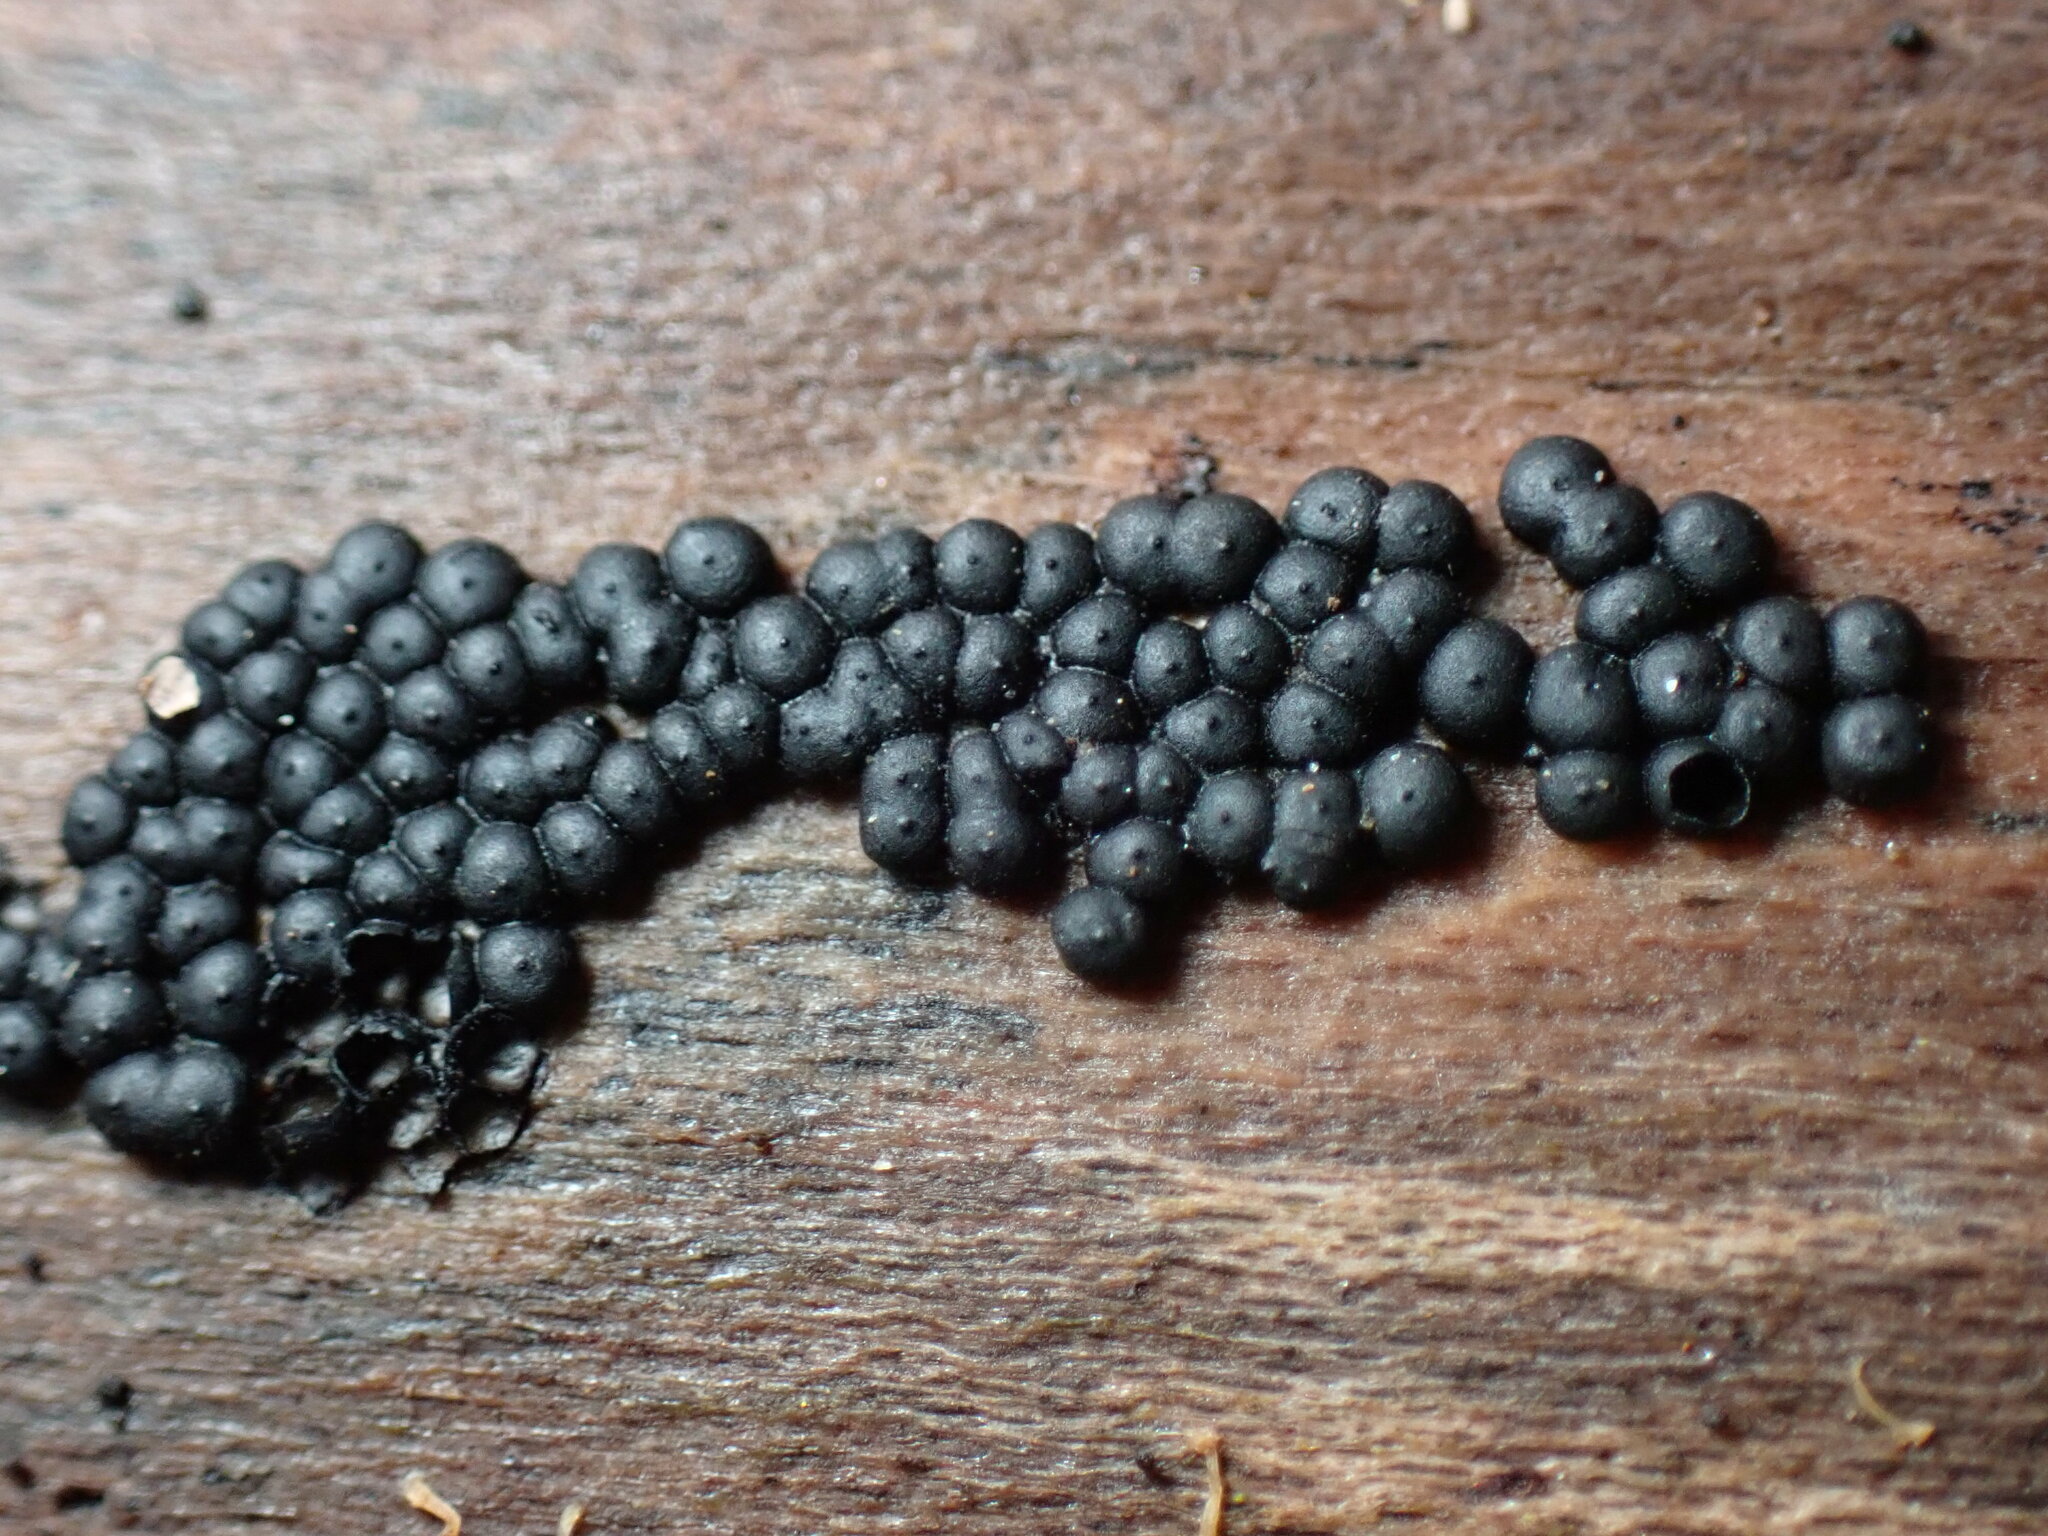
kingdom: Fungi
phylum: Ascomycota
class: Sordariomycetes
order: Xylariales
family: Xylariaceae
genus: Rosellinia
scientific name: Rosellinia subiculata
